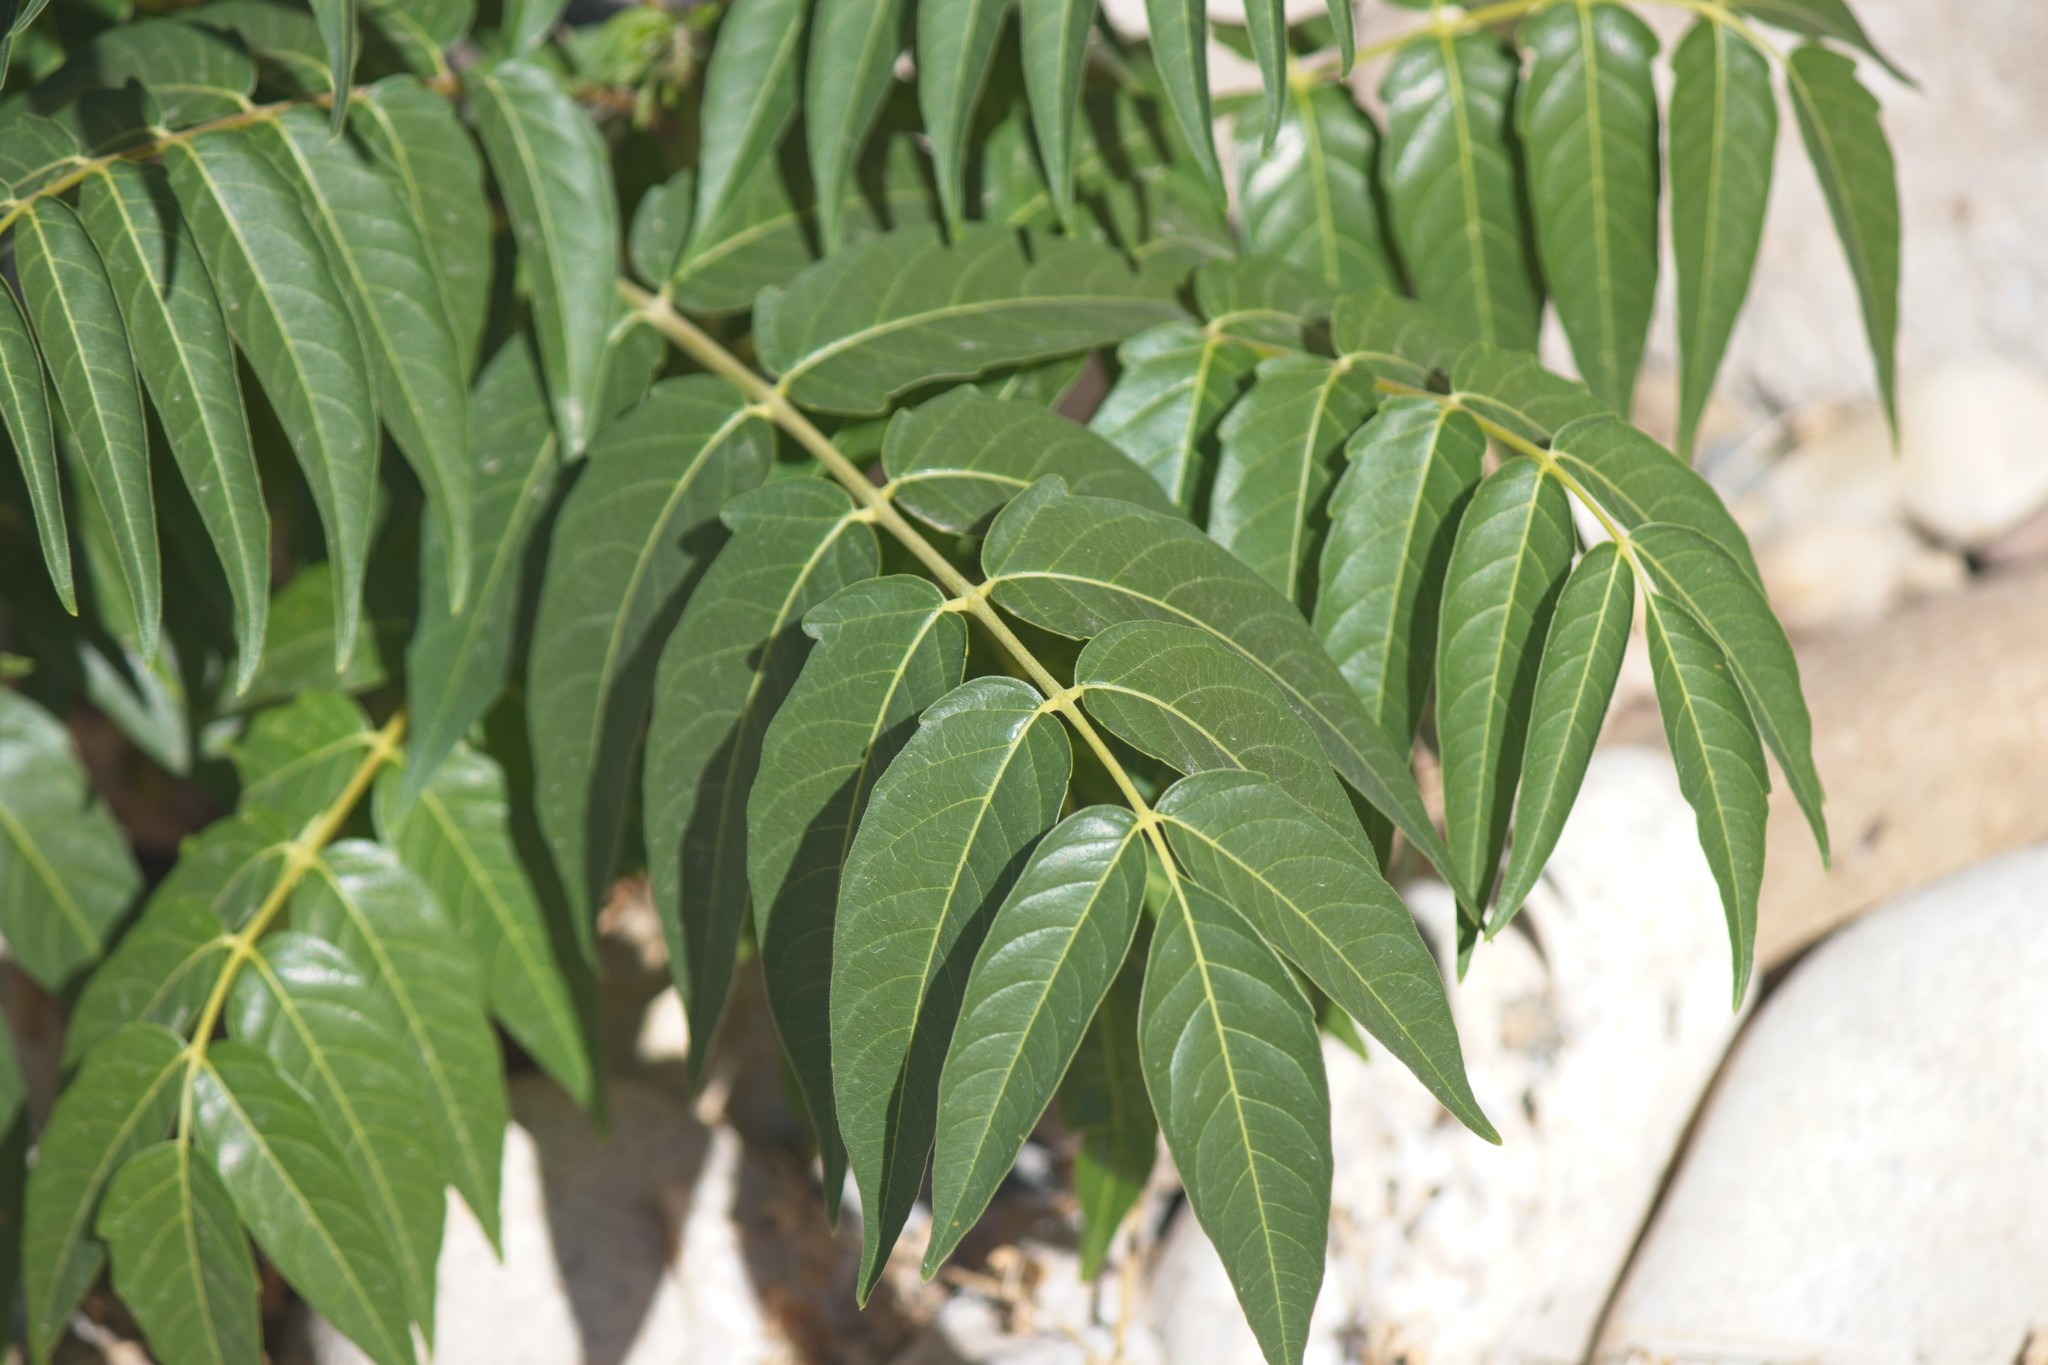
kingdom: Plantae
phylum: Tracheophyta
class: Magnoliopsida
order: Sapindales
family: Simaroubaceae
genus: Ailanthus
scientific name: Ailanthus altissima
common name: Tree-of-heaven
